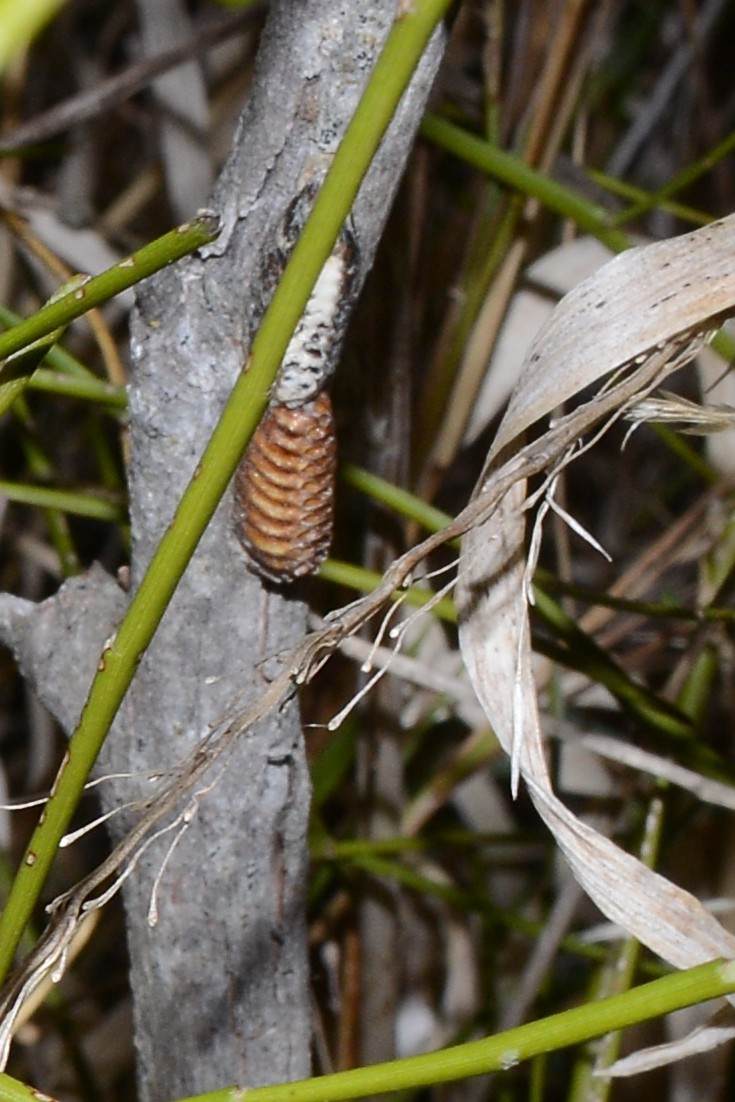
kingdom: Animalia
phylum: Arthropoda
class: Insecta
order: Mantodea
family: Mantidae
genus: Orthodera
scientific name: Orthodera novaezealandiae
